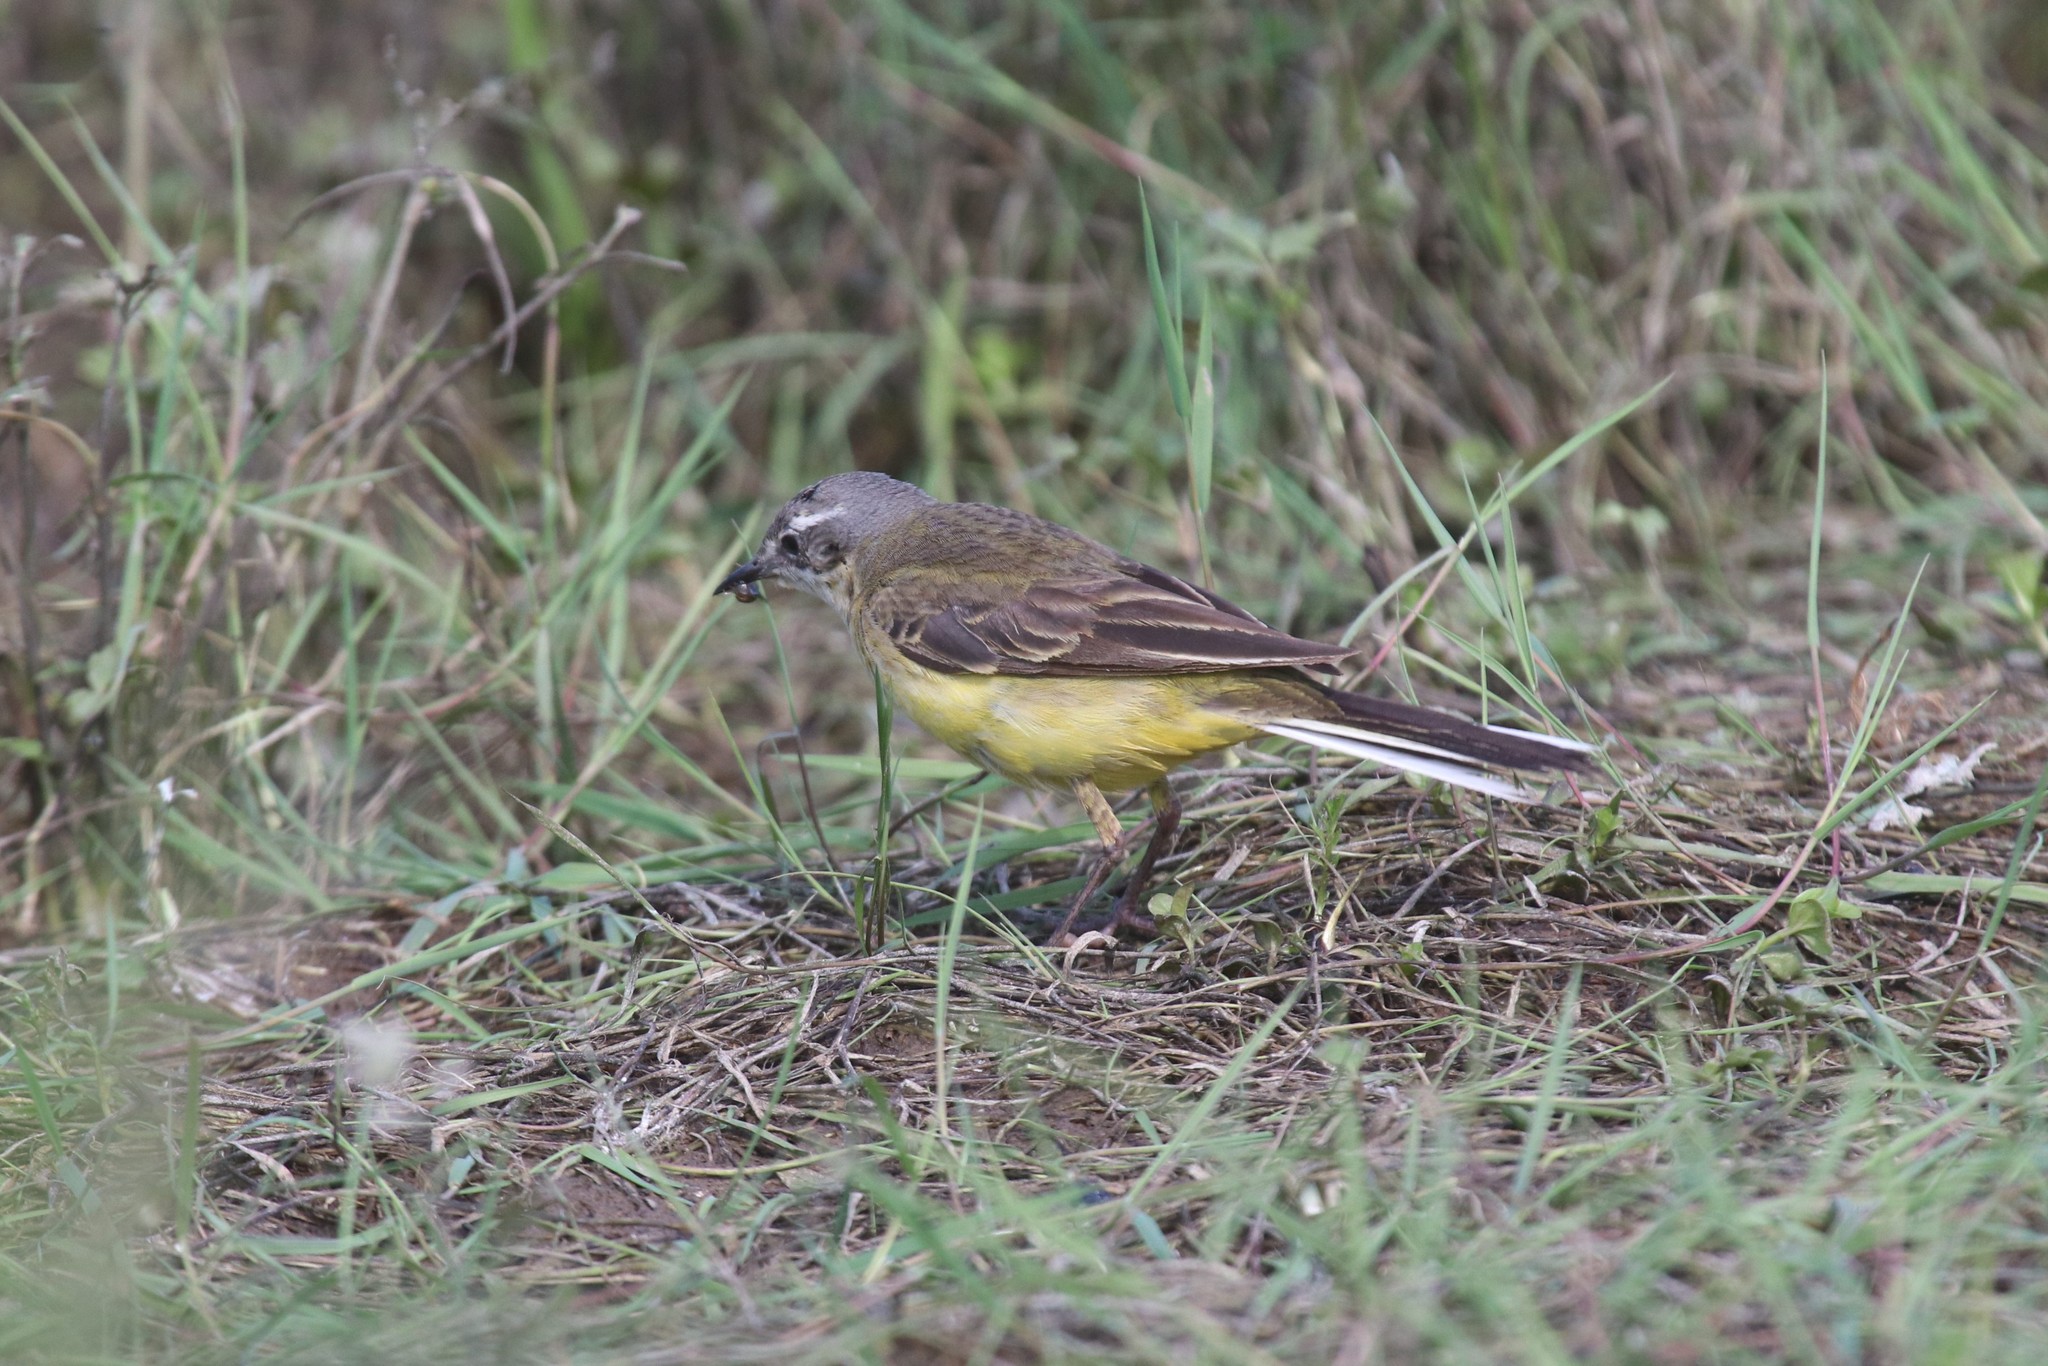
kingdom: Animalia
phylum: Chordata
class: Aves
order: Passeriformes
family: Motacillidae
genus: Motacilla
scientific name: Motacilla flava
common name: Western yellow wagtail
